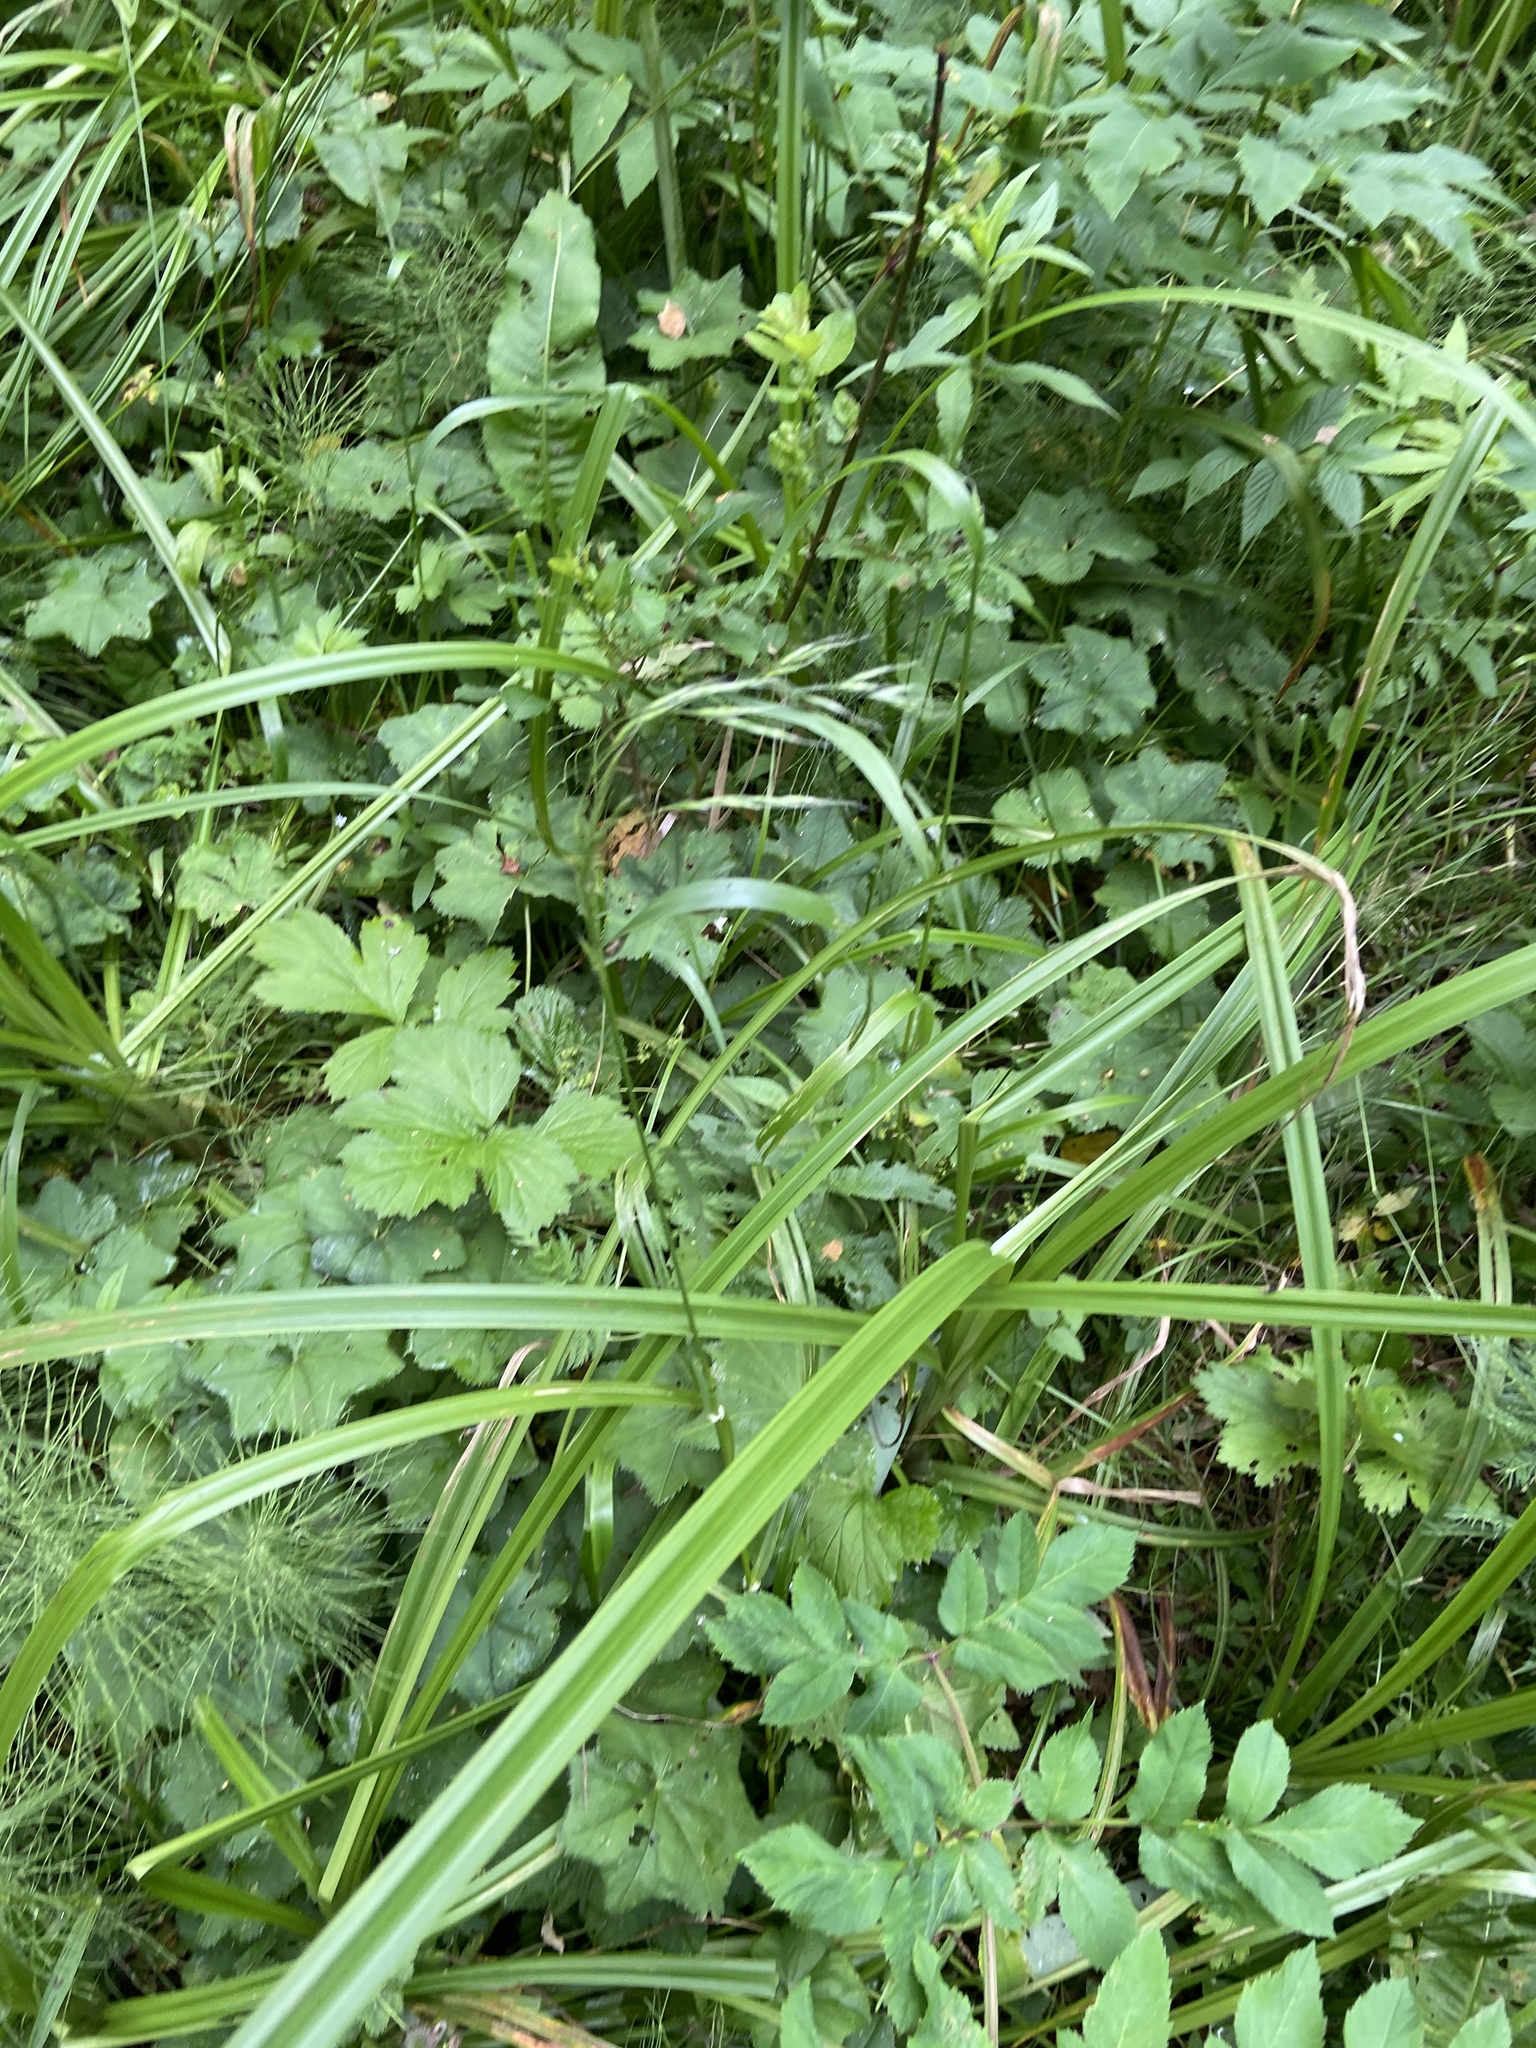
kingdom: Plantae
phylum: Tracheophyta
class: Liliopsida
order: Poales
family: Poaceae
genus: Lolium
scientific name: Lolium giganteum
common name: Giant fescue
